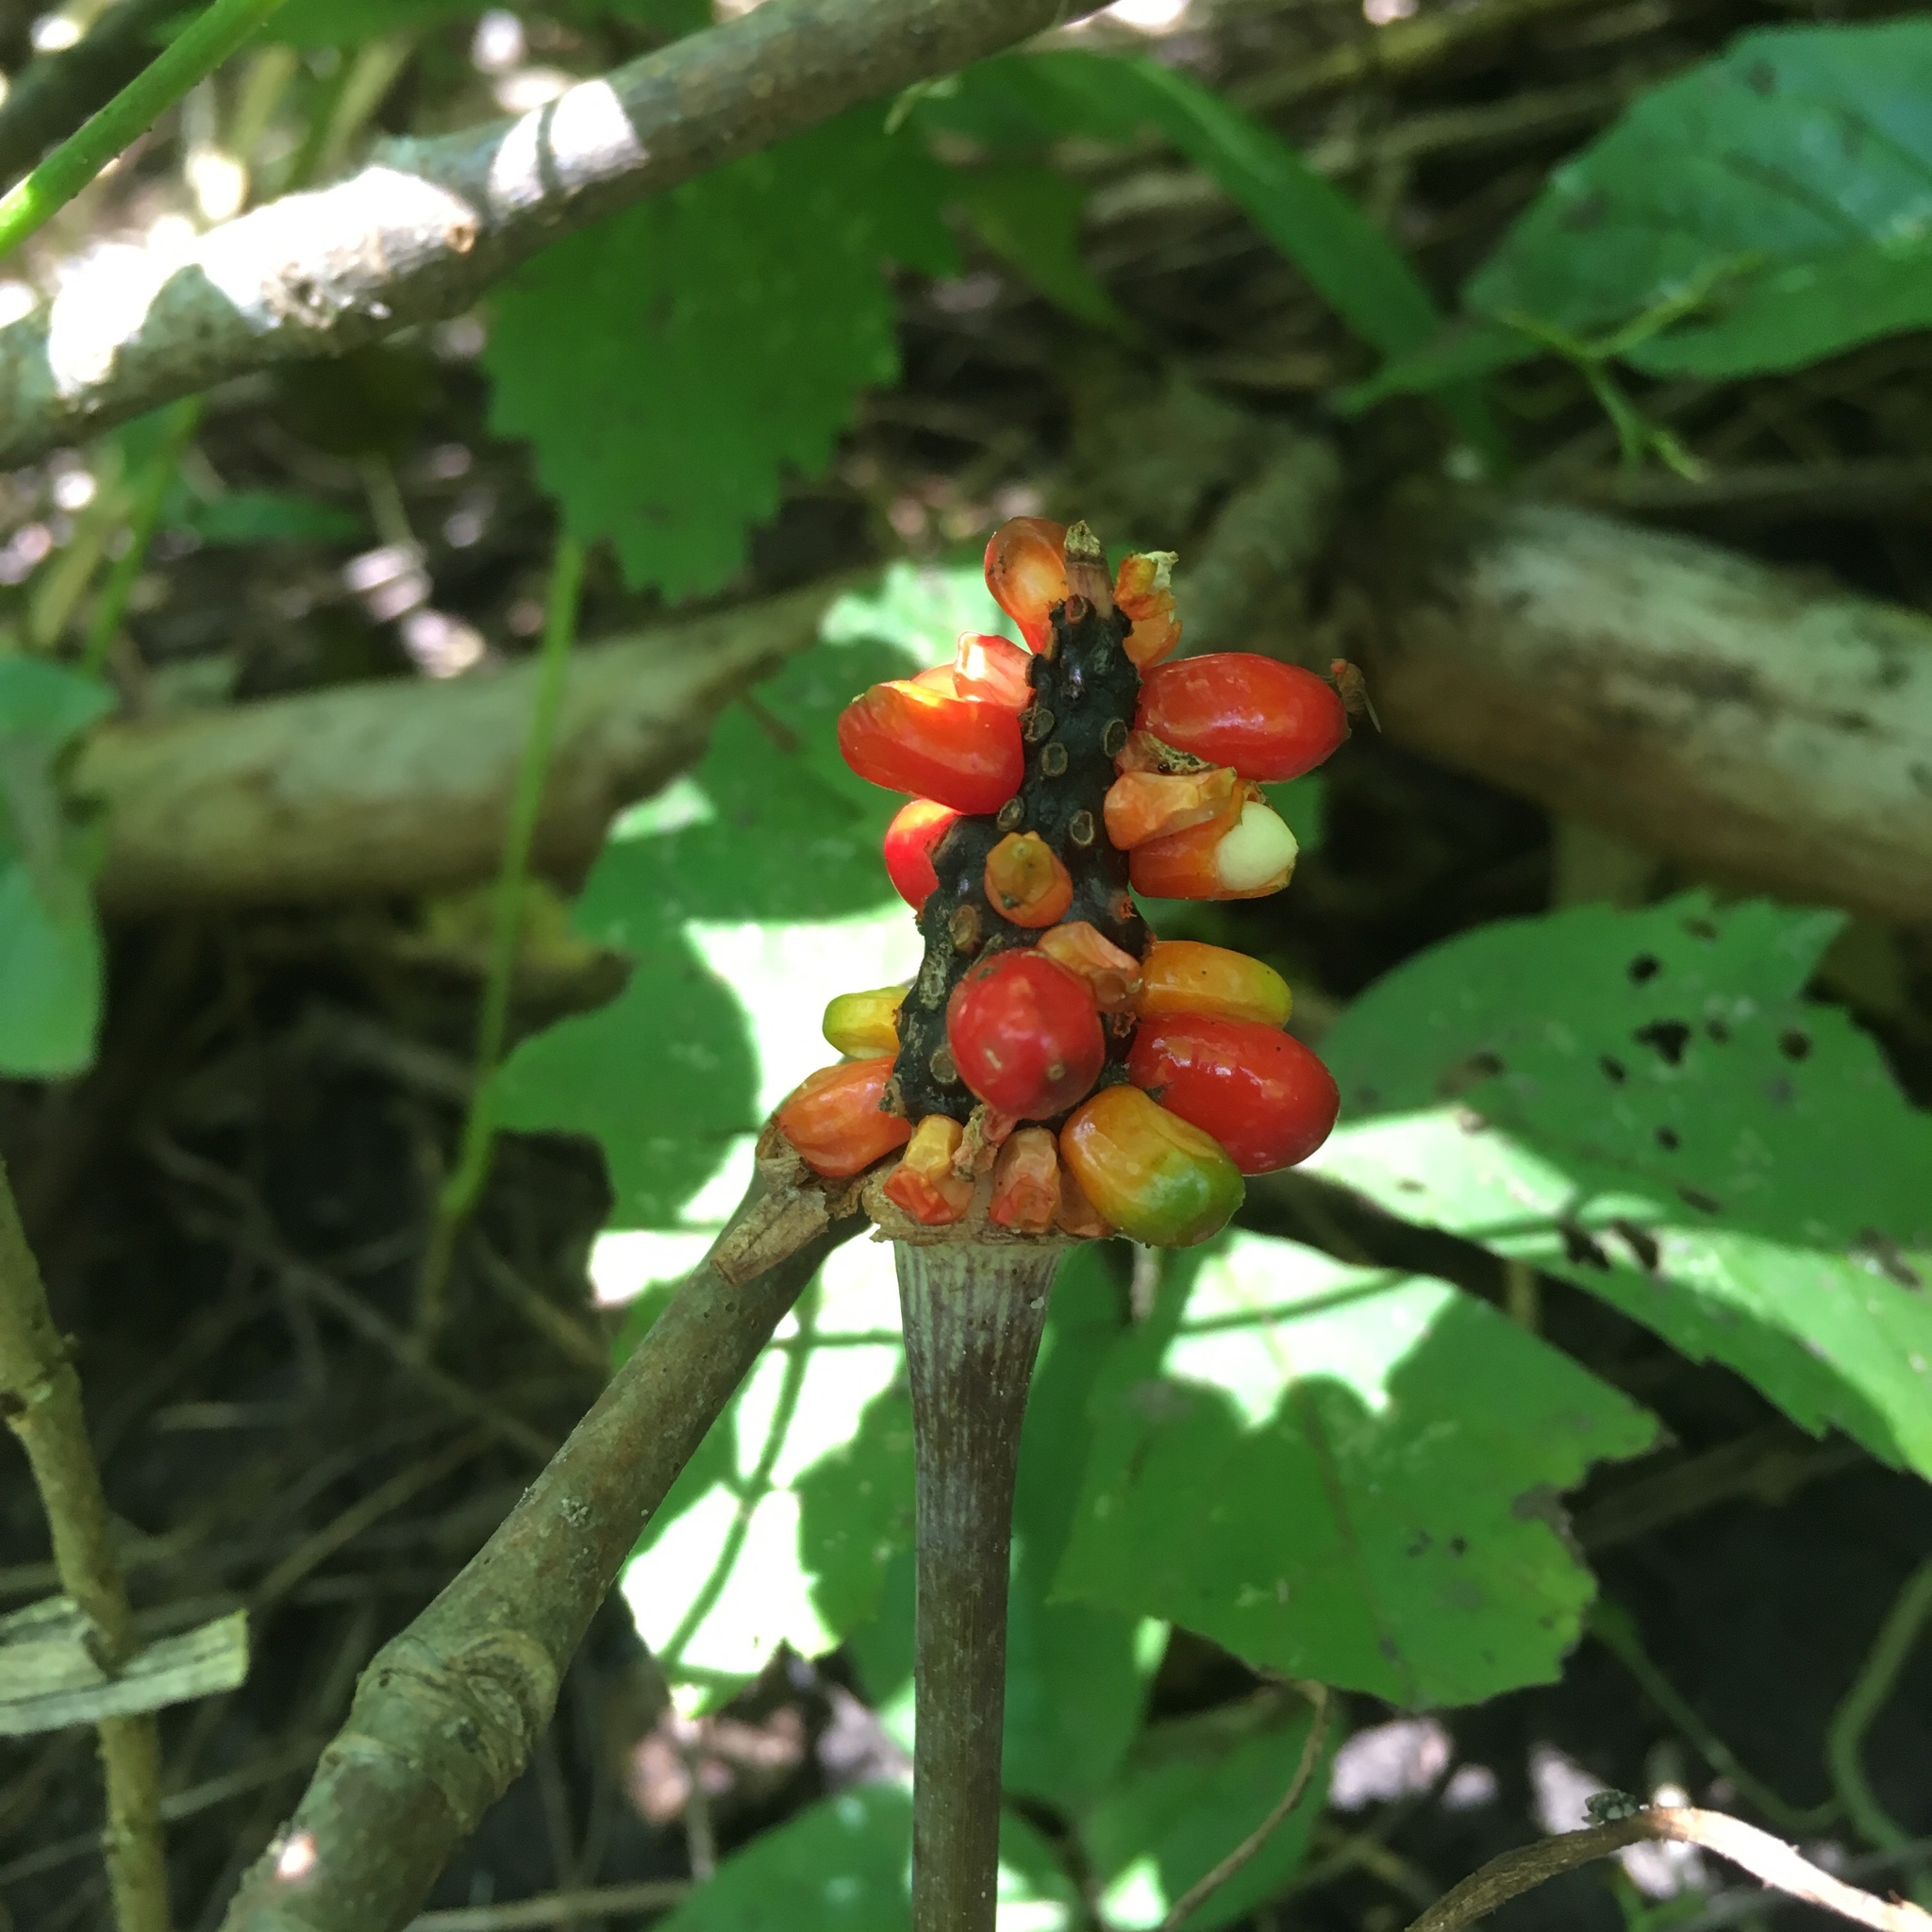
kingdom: Plantae
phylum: Tracheophyta
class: Liliopsida
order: Alismatales
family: Araceae
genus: Arisaema
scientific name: Arisaema triphyllum
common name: Jack-in-the-pulpit
